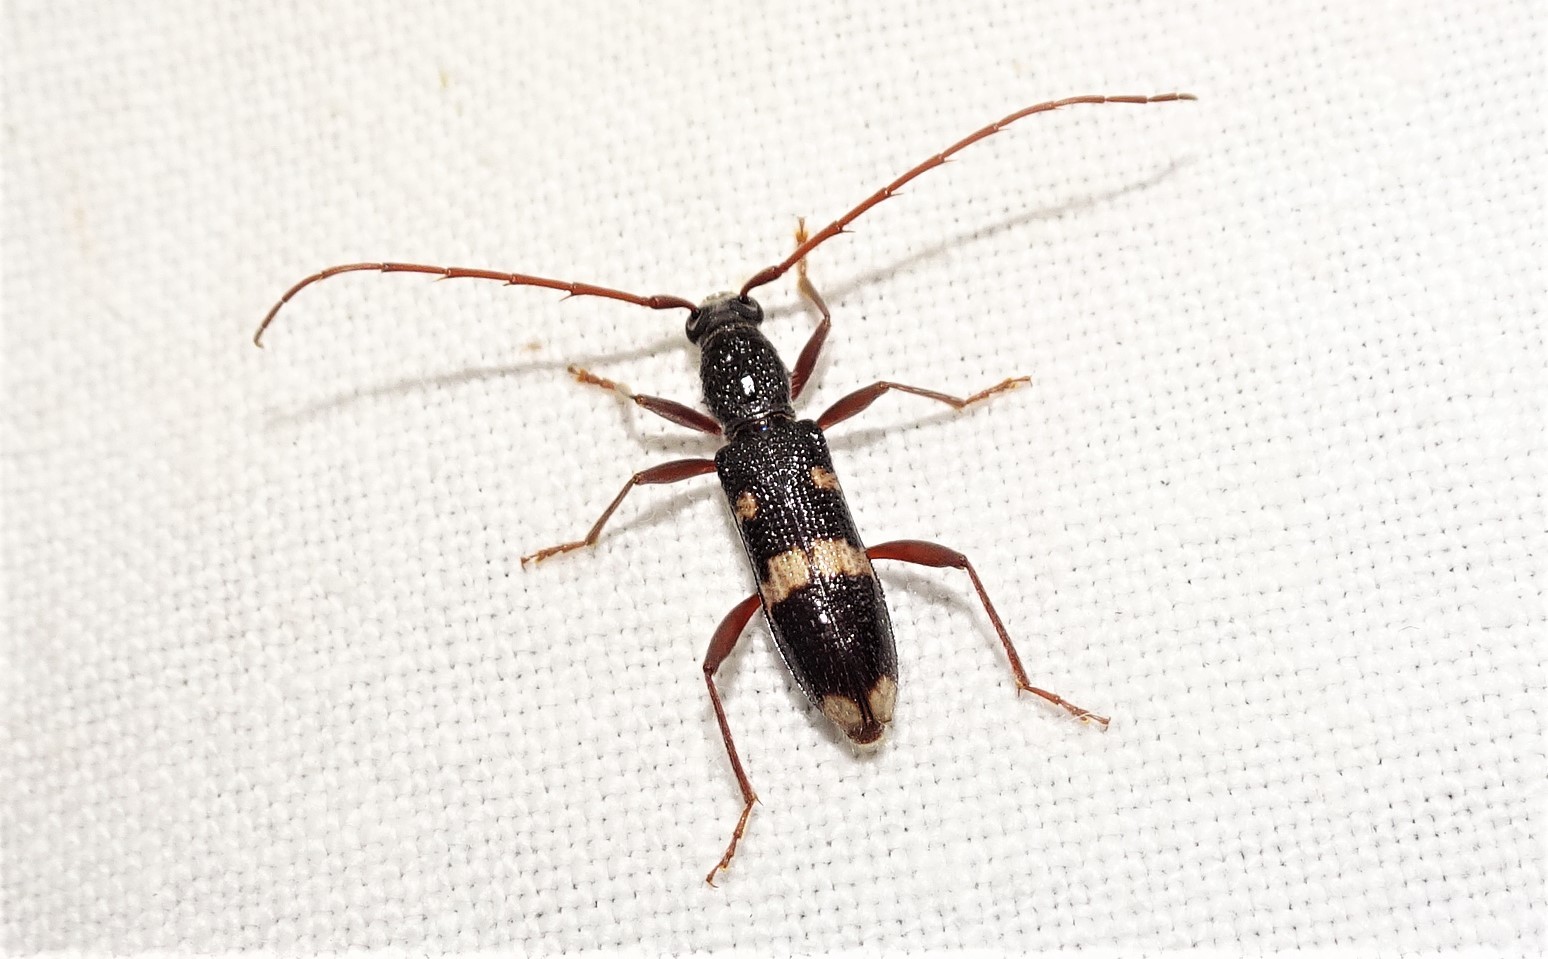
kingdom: Animalia
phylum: Arthropoda
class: Insecta
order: Coleoptera
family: Cerambycidae
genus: Coleocoptus
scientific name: Coleocoptus senio
